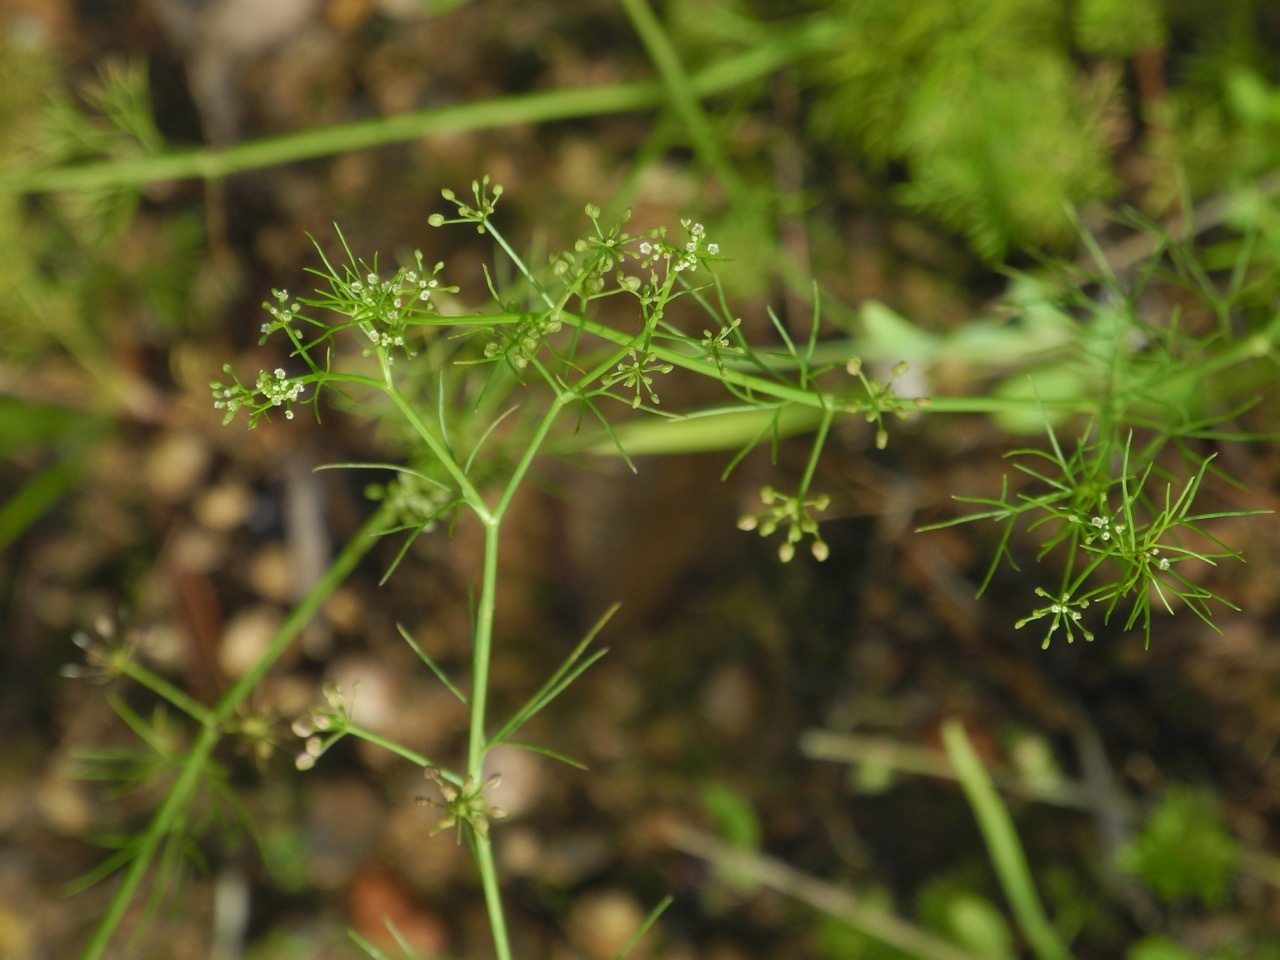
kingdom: Plantae
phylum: Tracheophyta
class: Magnoliopsida
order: Apiales
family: Apiaceae
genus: Cyclospermum
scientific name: Cyclospermum leptophyllum
